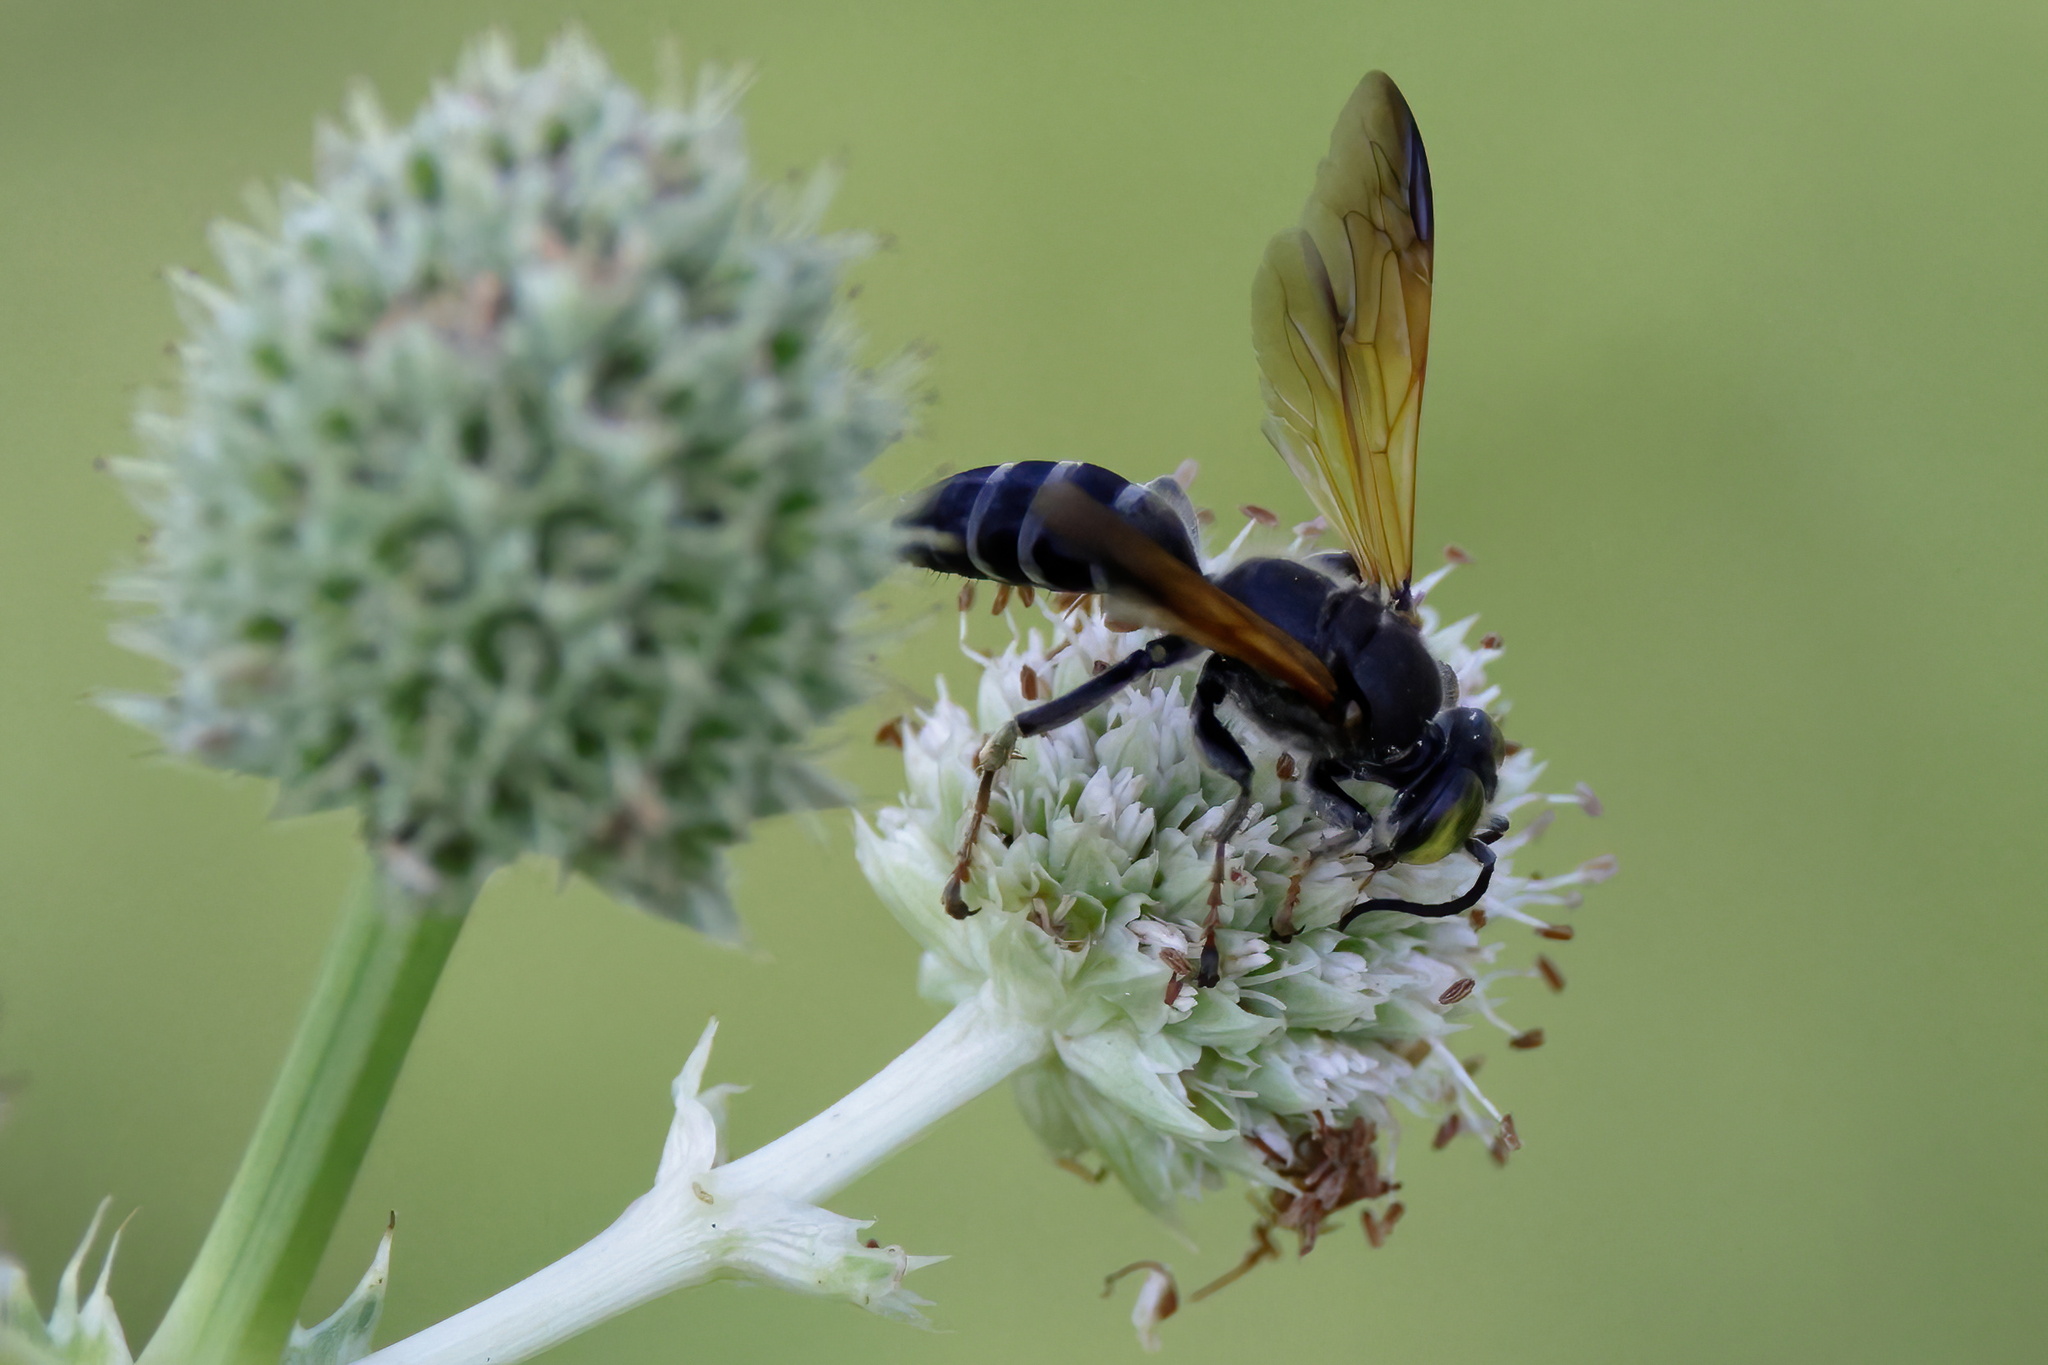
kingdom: Animalia
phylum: Arthropoda
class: Insecta
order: Hymenoptera
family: Crabronidae
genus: Tachytes
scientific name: Tachytes guatemalensis
